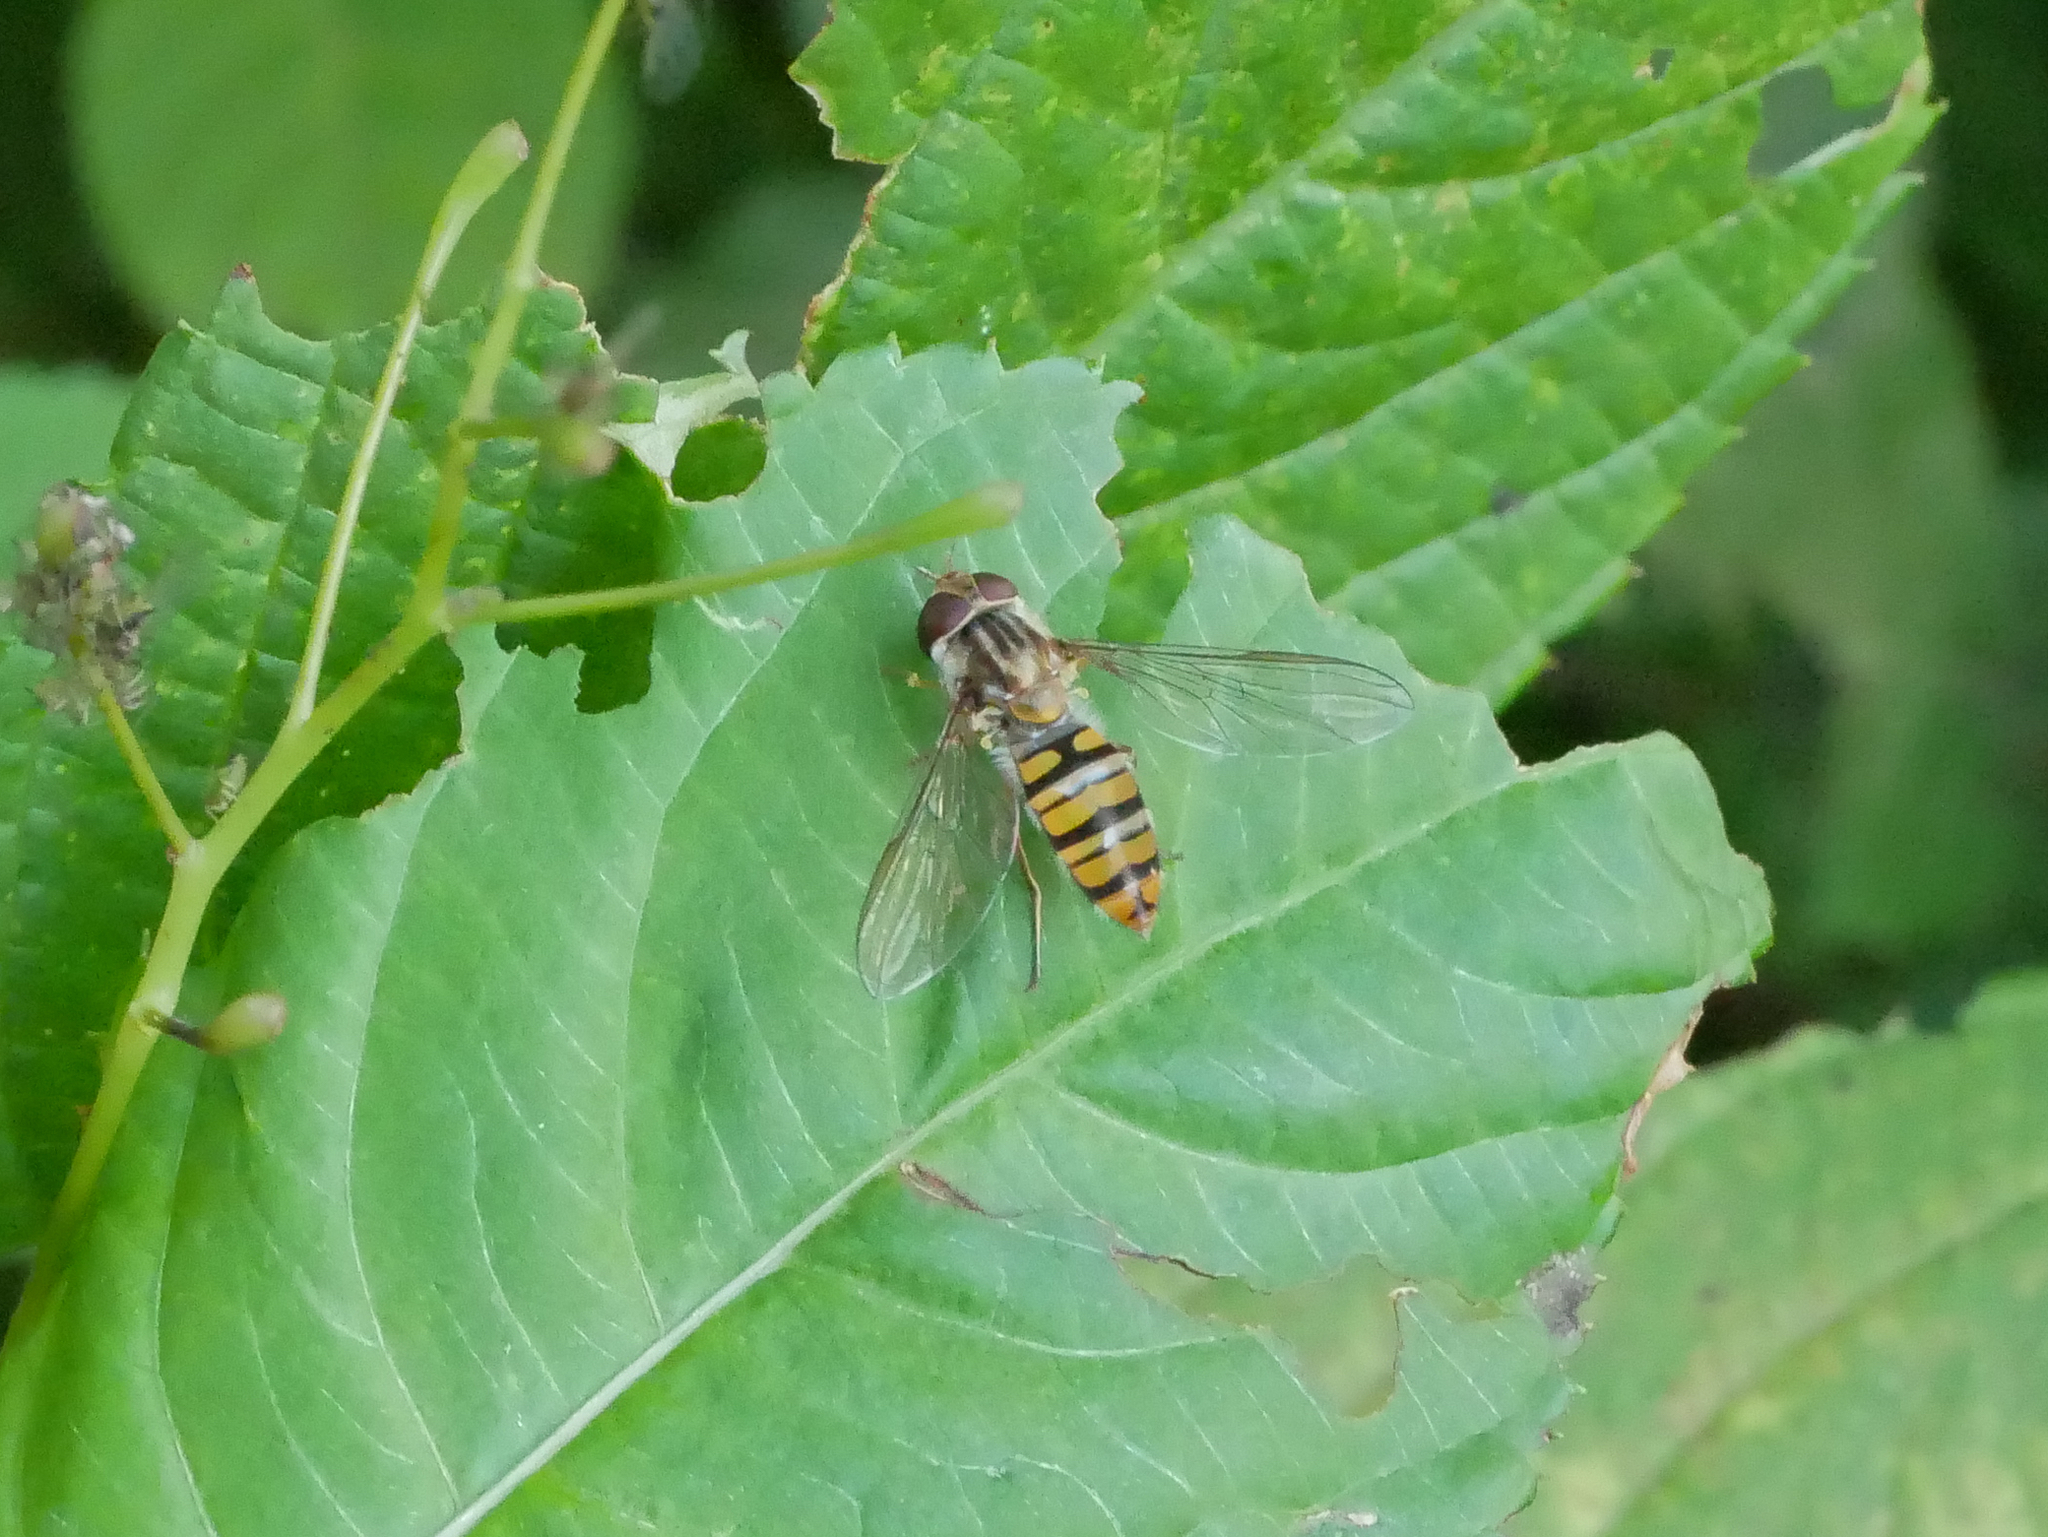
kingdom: Animalia
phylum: Arthropoda
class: Insecta
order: Diptera
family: Syrphidae
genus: Episyrphus
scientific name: Episyrphus balteatus
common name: Marmalade hoverfly
